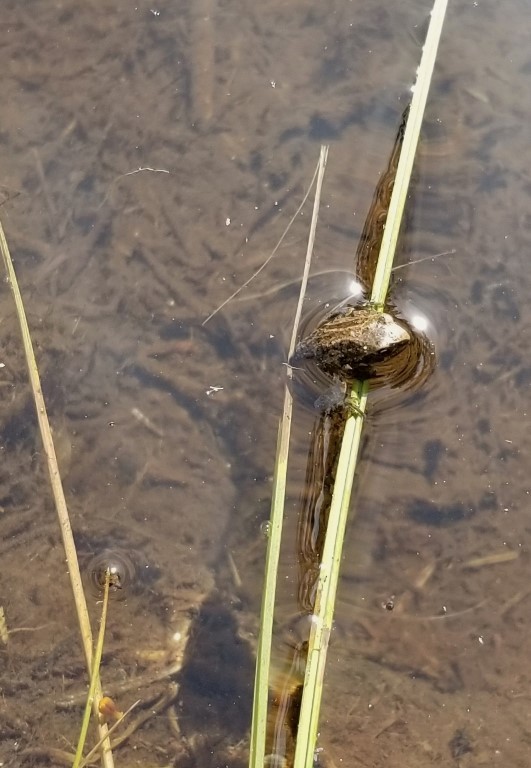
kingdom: Animalia
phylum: Chordata
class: Amphibia
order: Anura
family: Hylidae
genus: Pseudacris
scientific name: Pseudacris regilla
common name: Pacific chorus frog
